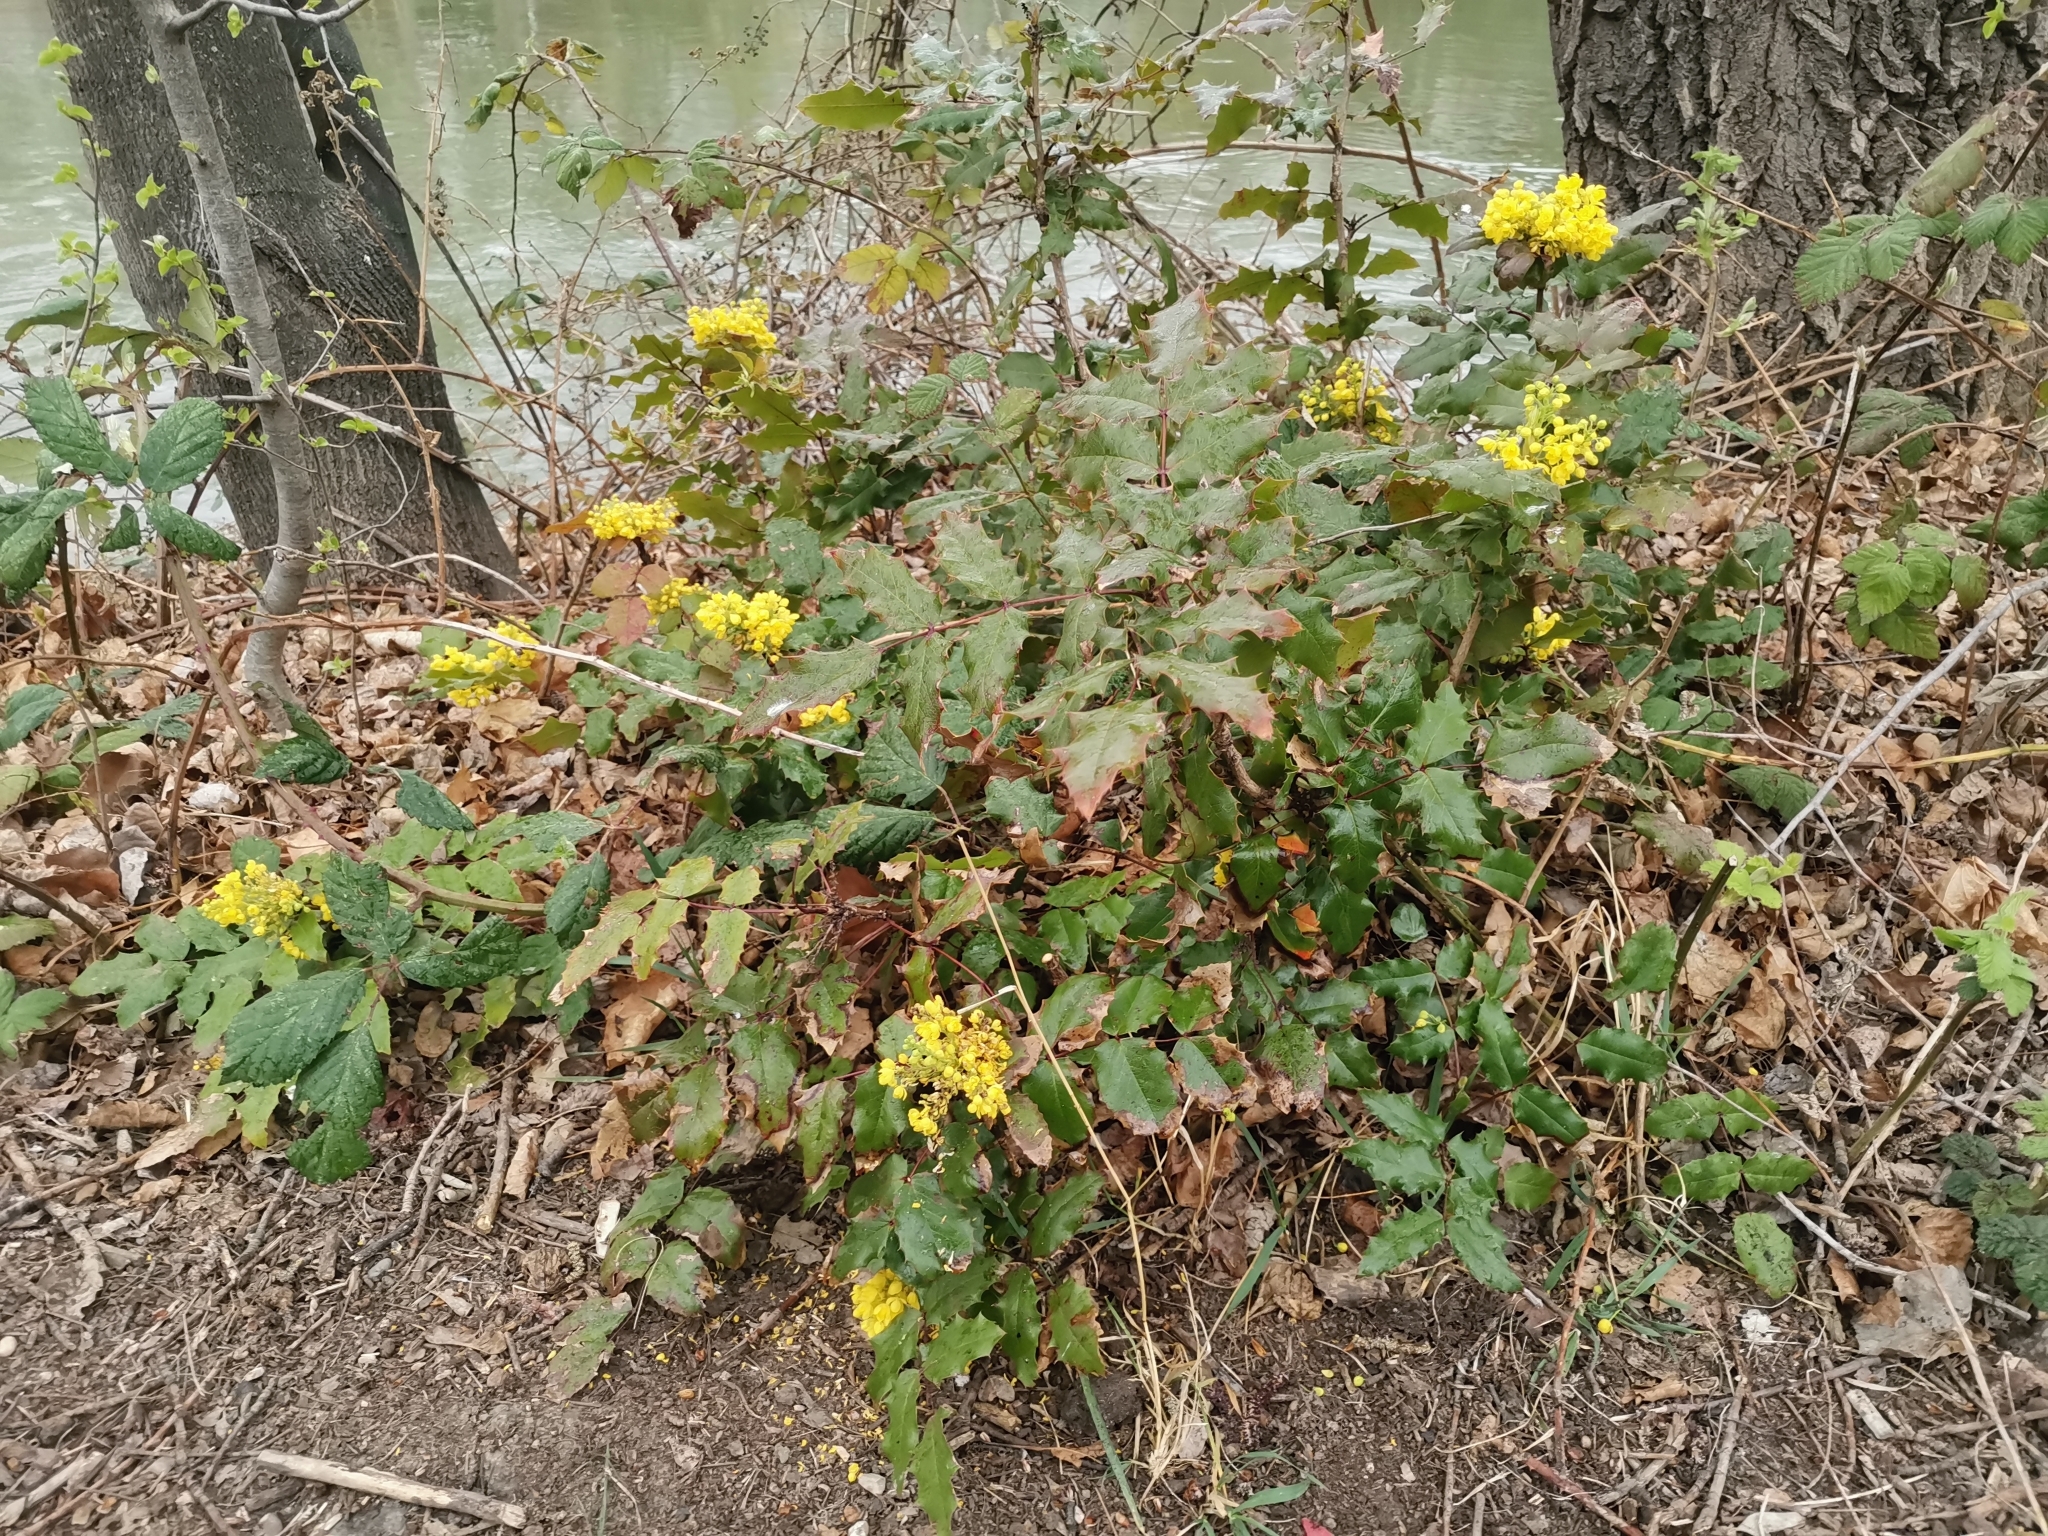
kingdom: Plantae
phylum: Tracheophyta
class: Magnoliopsida
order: Ranunculales
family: Berberidaceae
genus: Mahonia
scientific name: Mahonia aquifolium
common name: Oregon-grape
